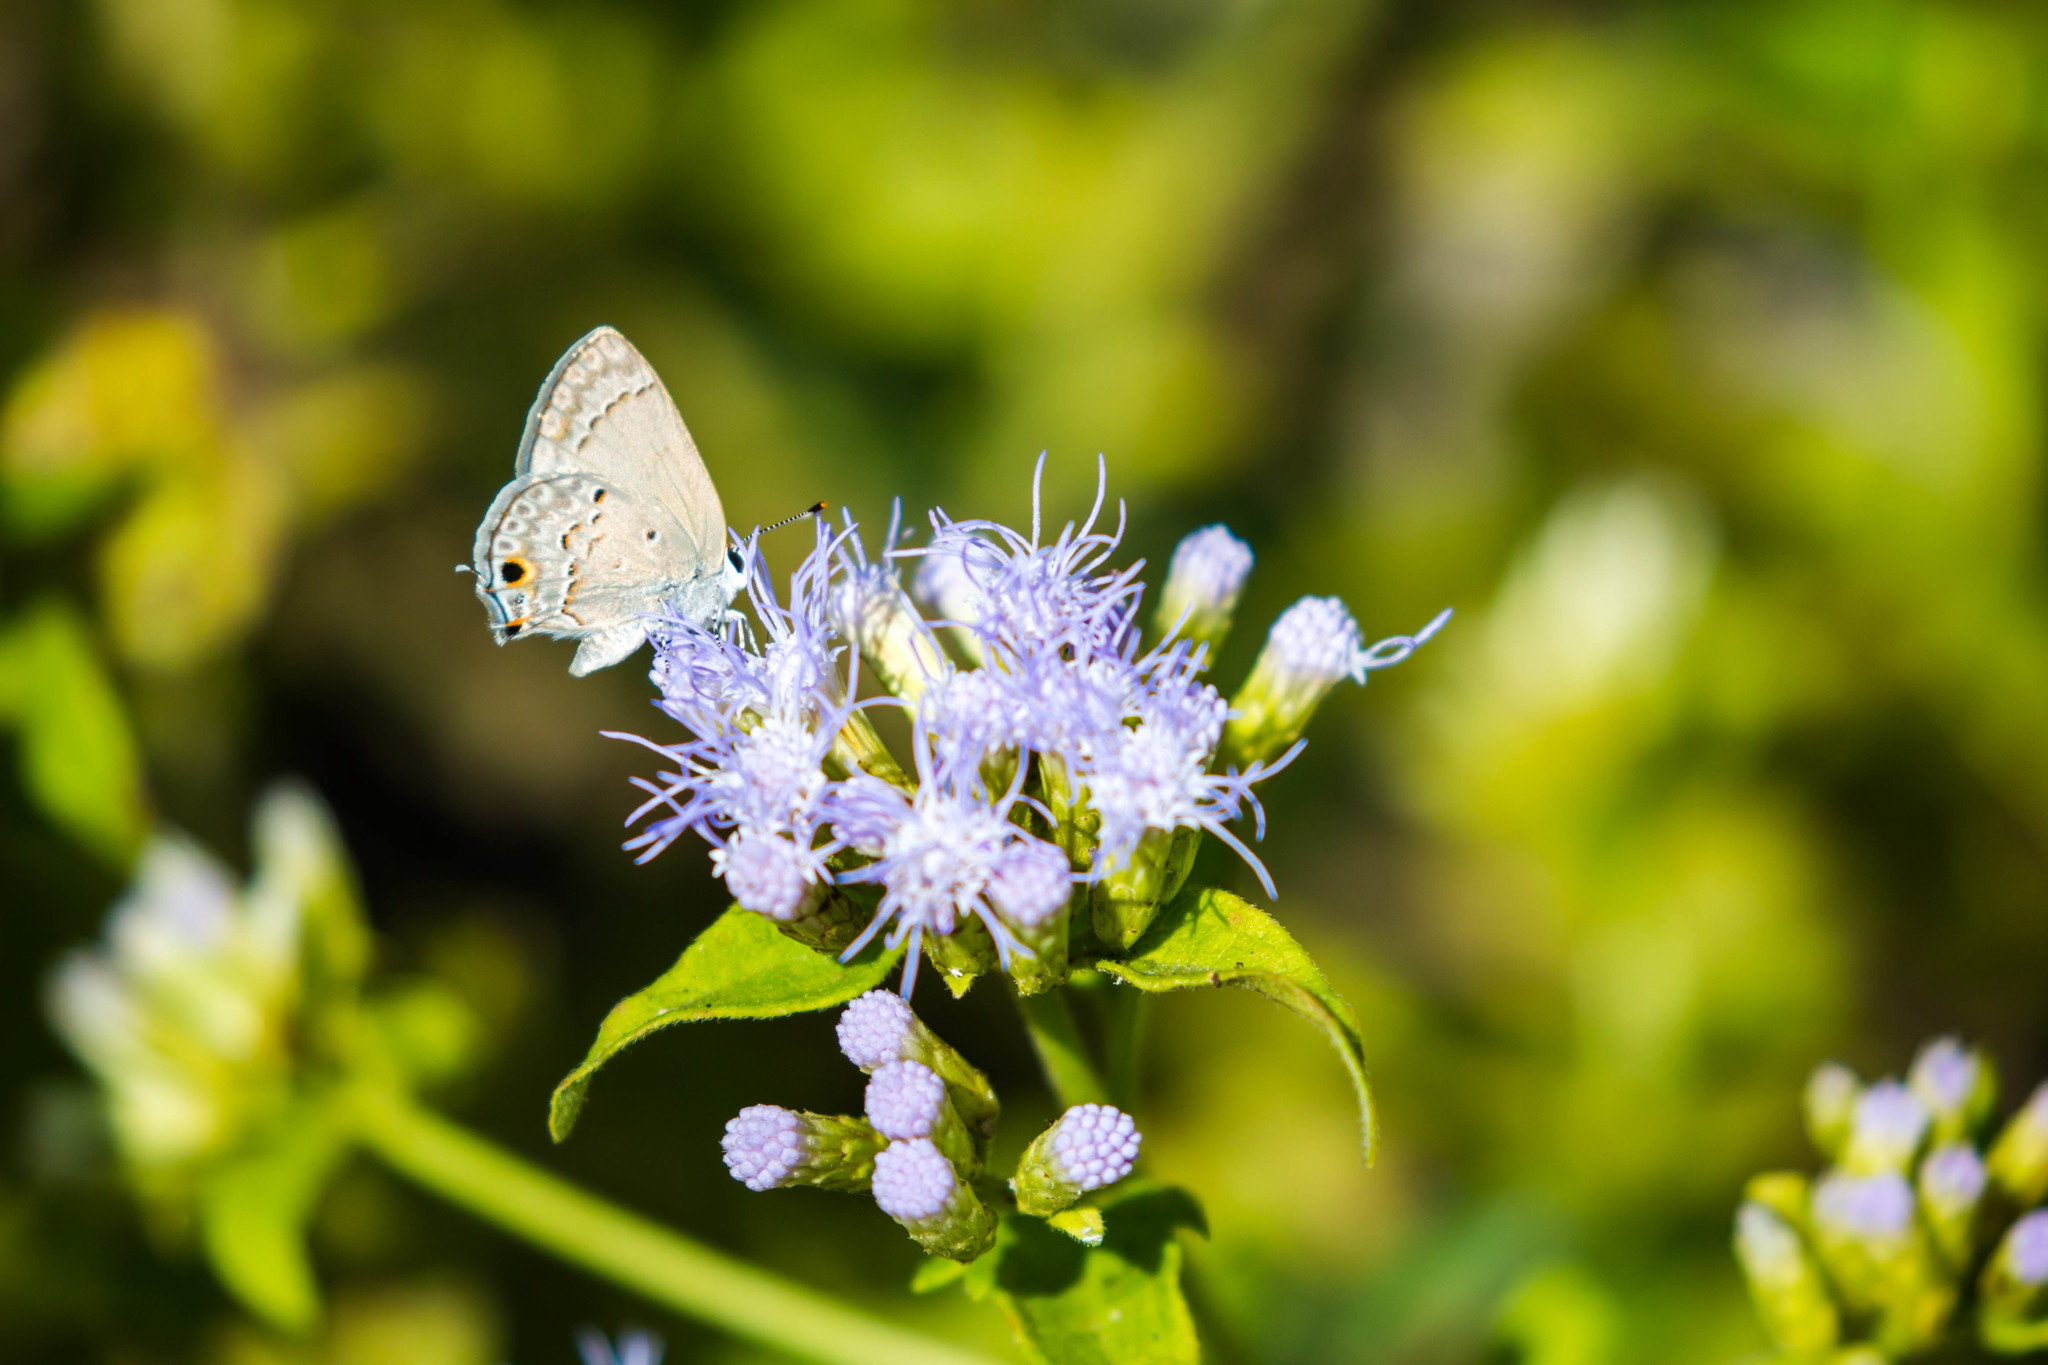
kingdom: Animalia
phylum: Arthropoda
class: Insecta
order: Lepidoptera
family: Lycaenidae
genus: Callicista
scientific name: Callicista columella
